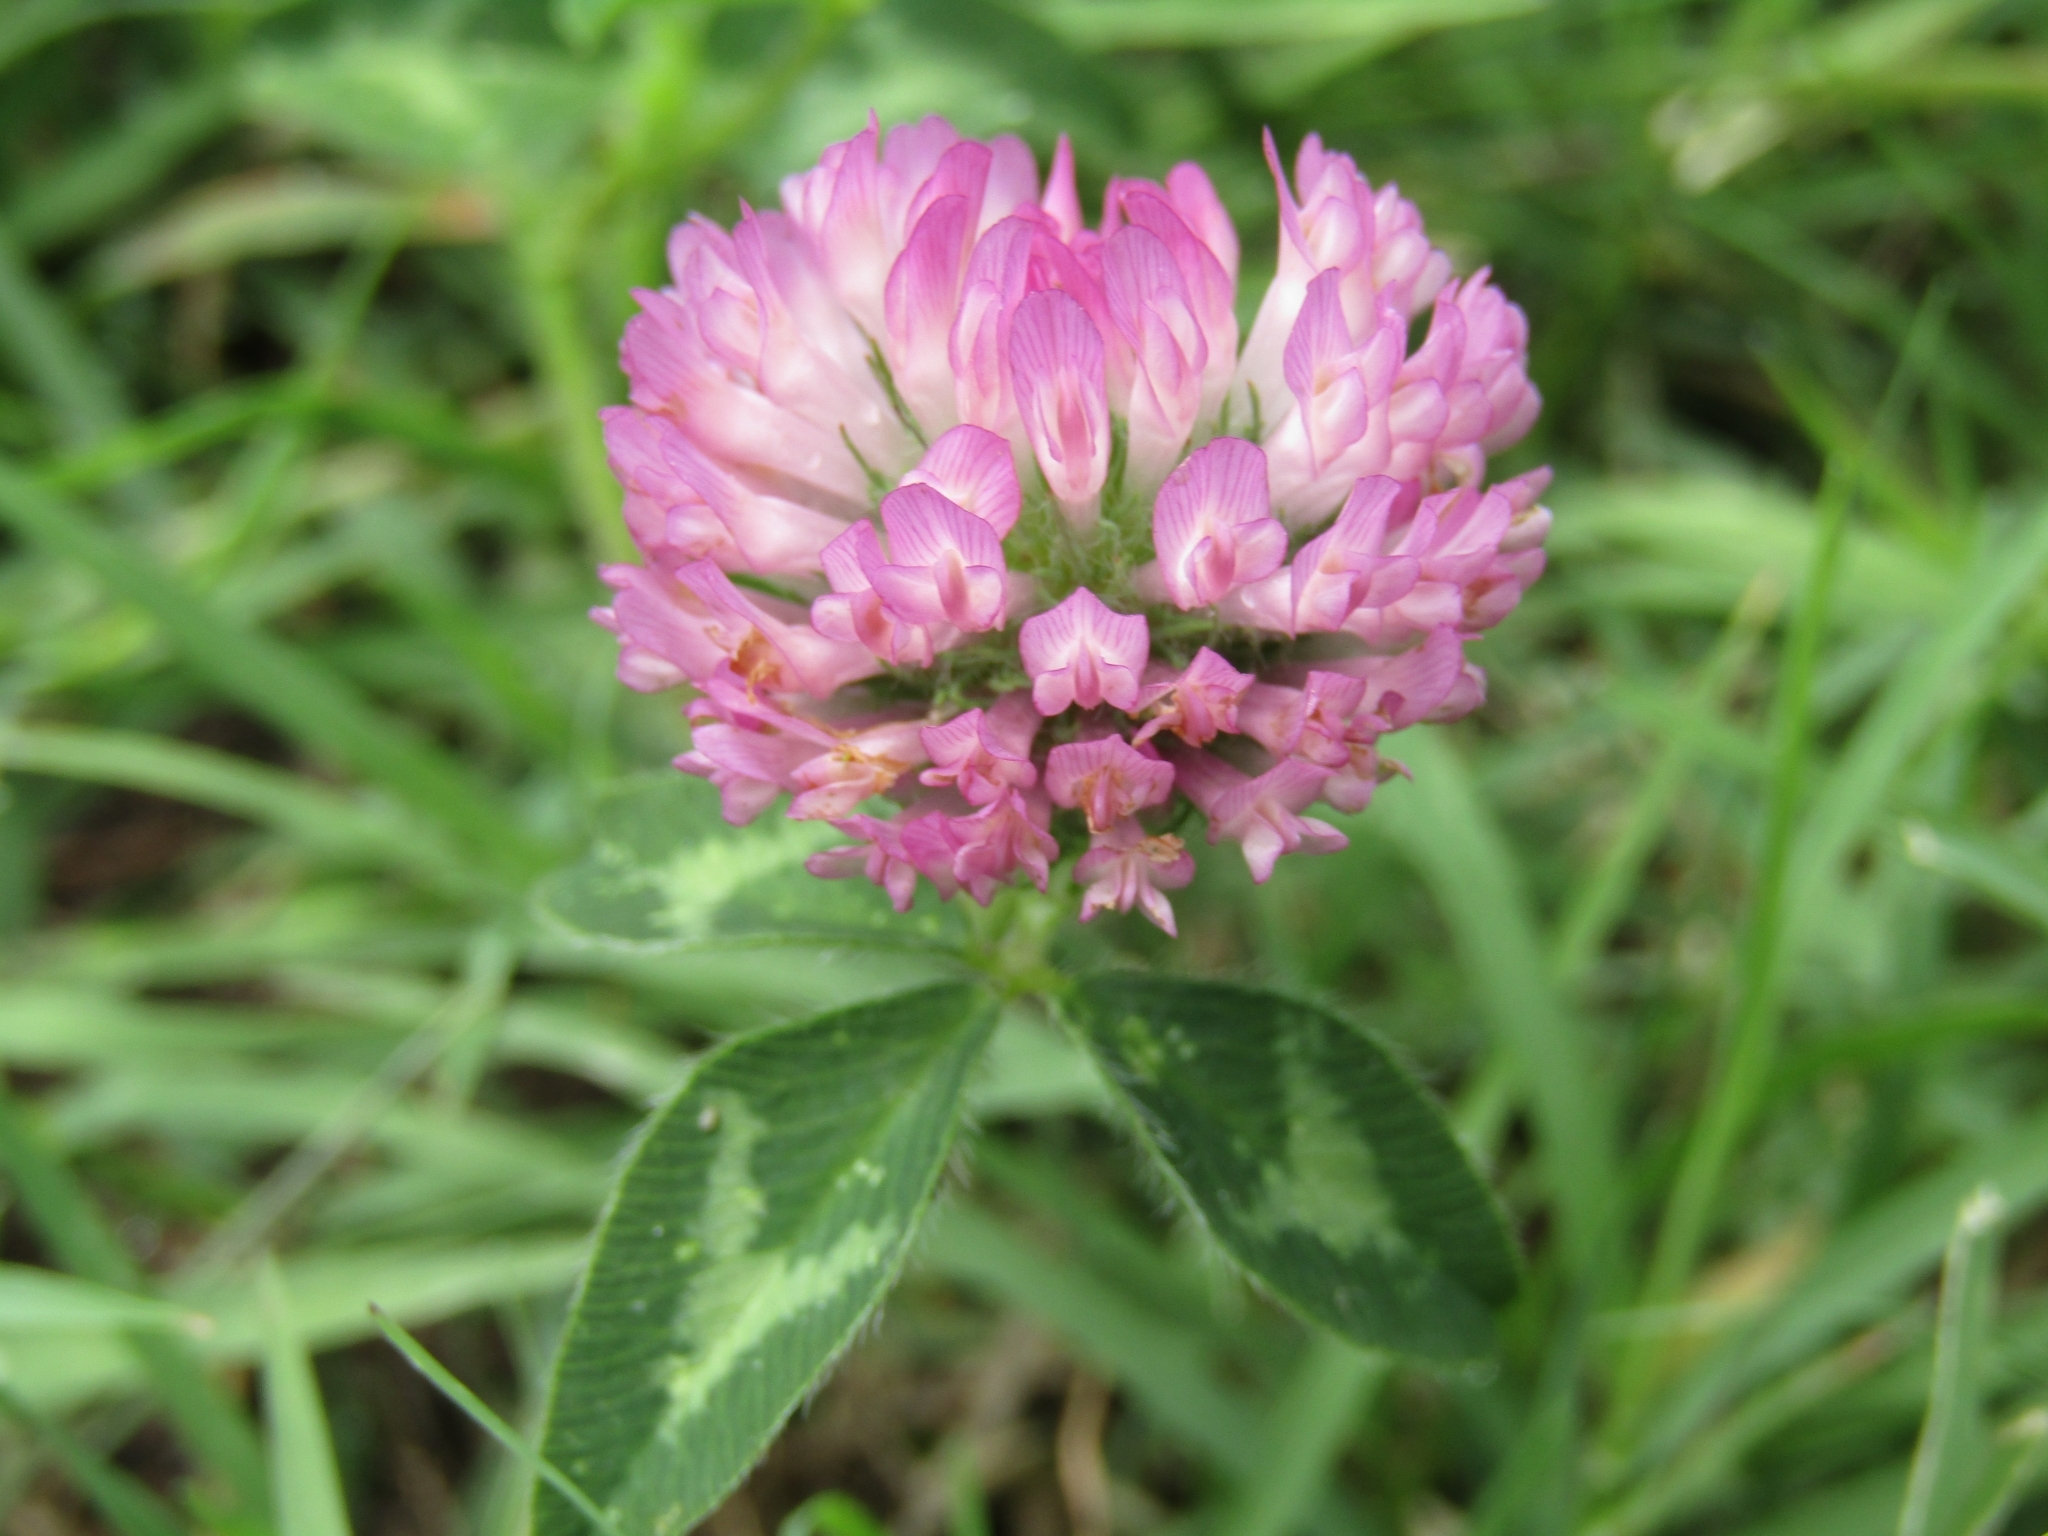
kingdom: Plantae
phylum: Tracheophyta
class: Magnoliopsida
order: Fabales
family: Fabaceae
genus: Trifolium
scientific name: Trifolium pratense
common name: Red clover
